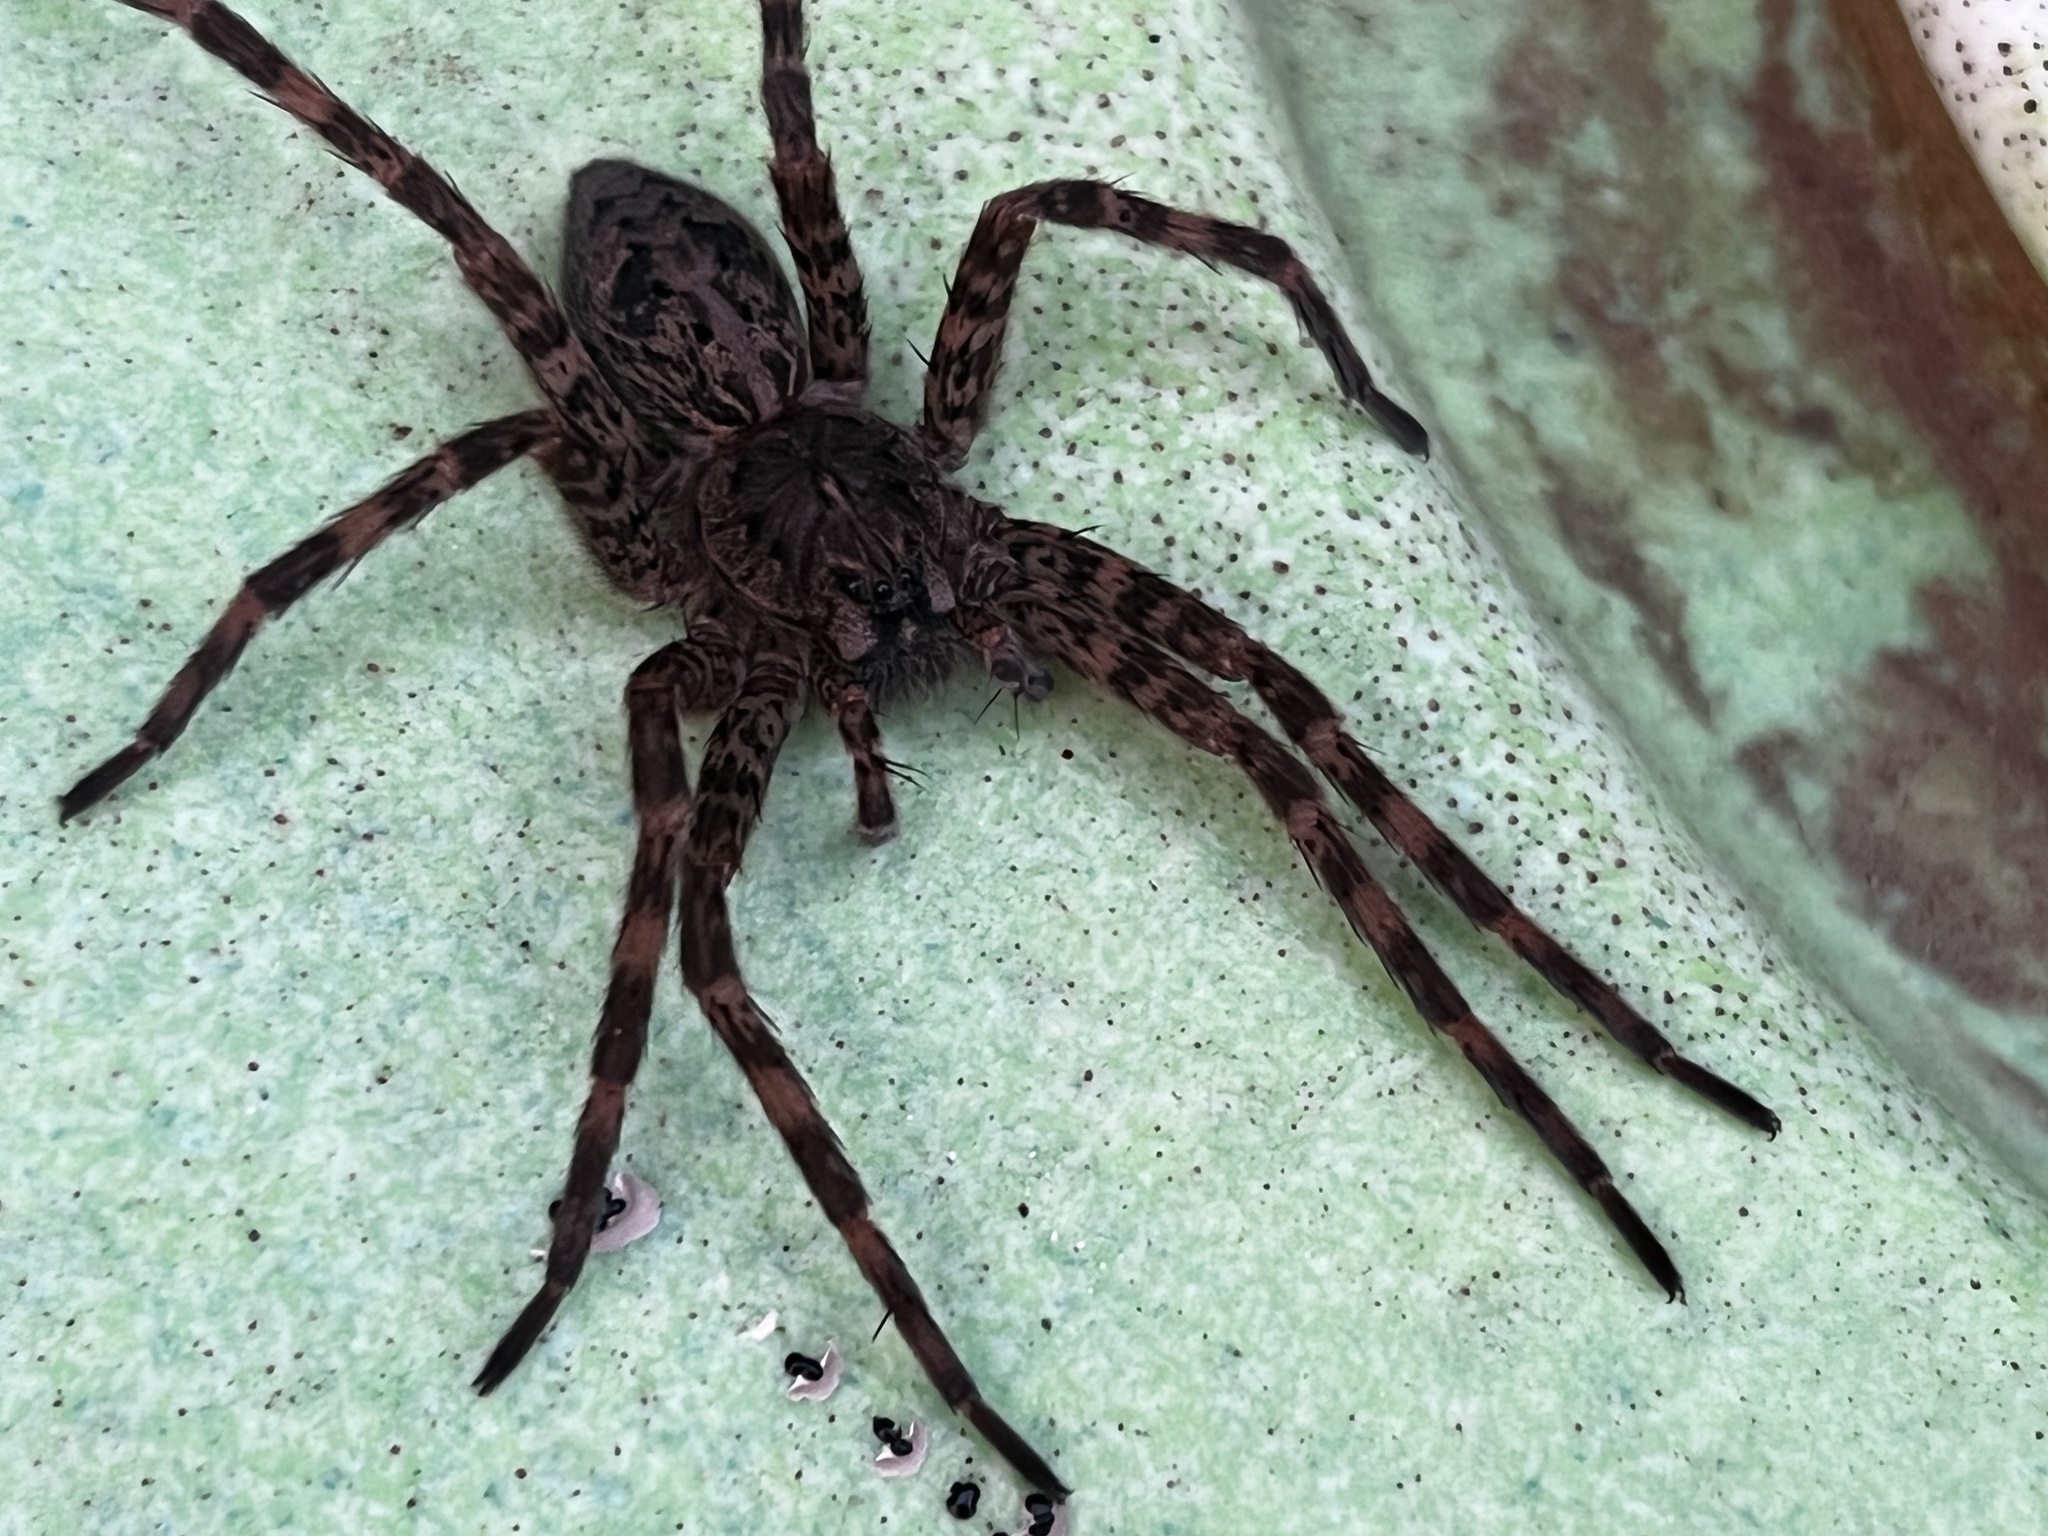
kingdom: Animalia
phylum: Arthropoda
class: Arachnida
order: Araneae
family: Pisauridae
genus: Dolomedes
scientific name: Dolomedes tenebrosus
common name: Dark fishing spider
